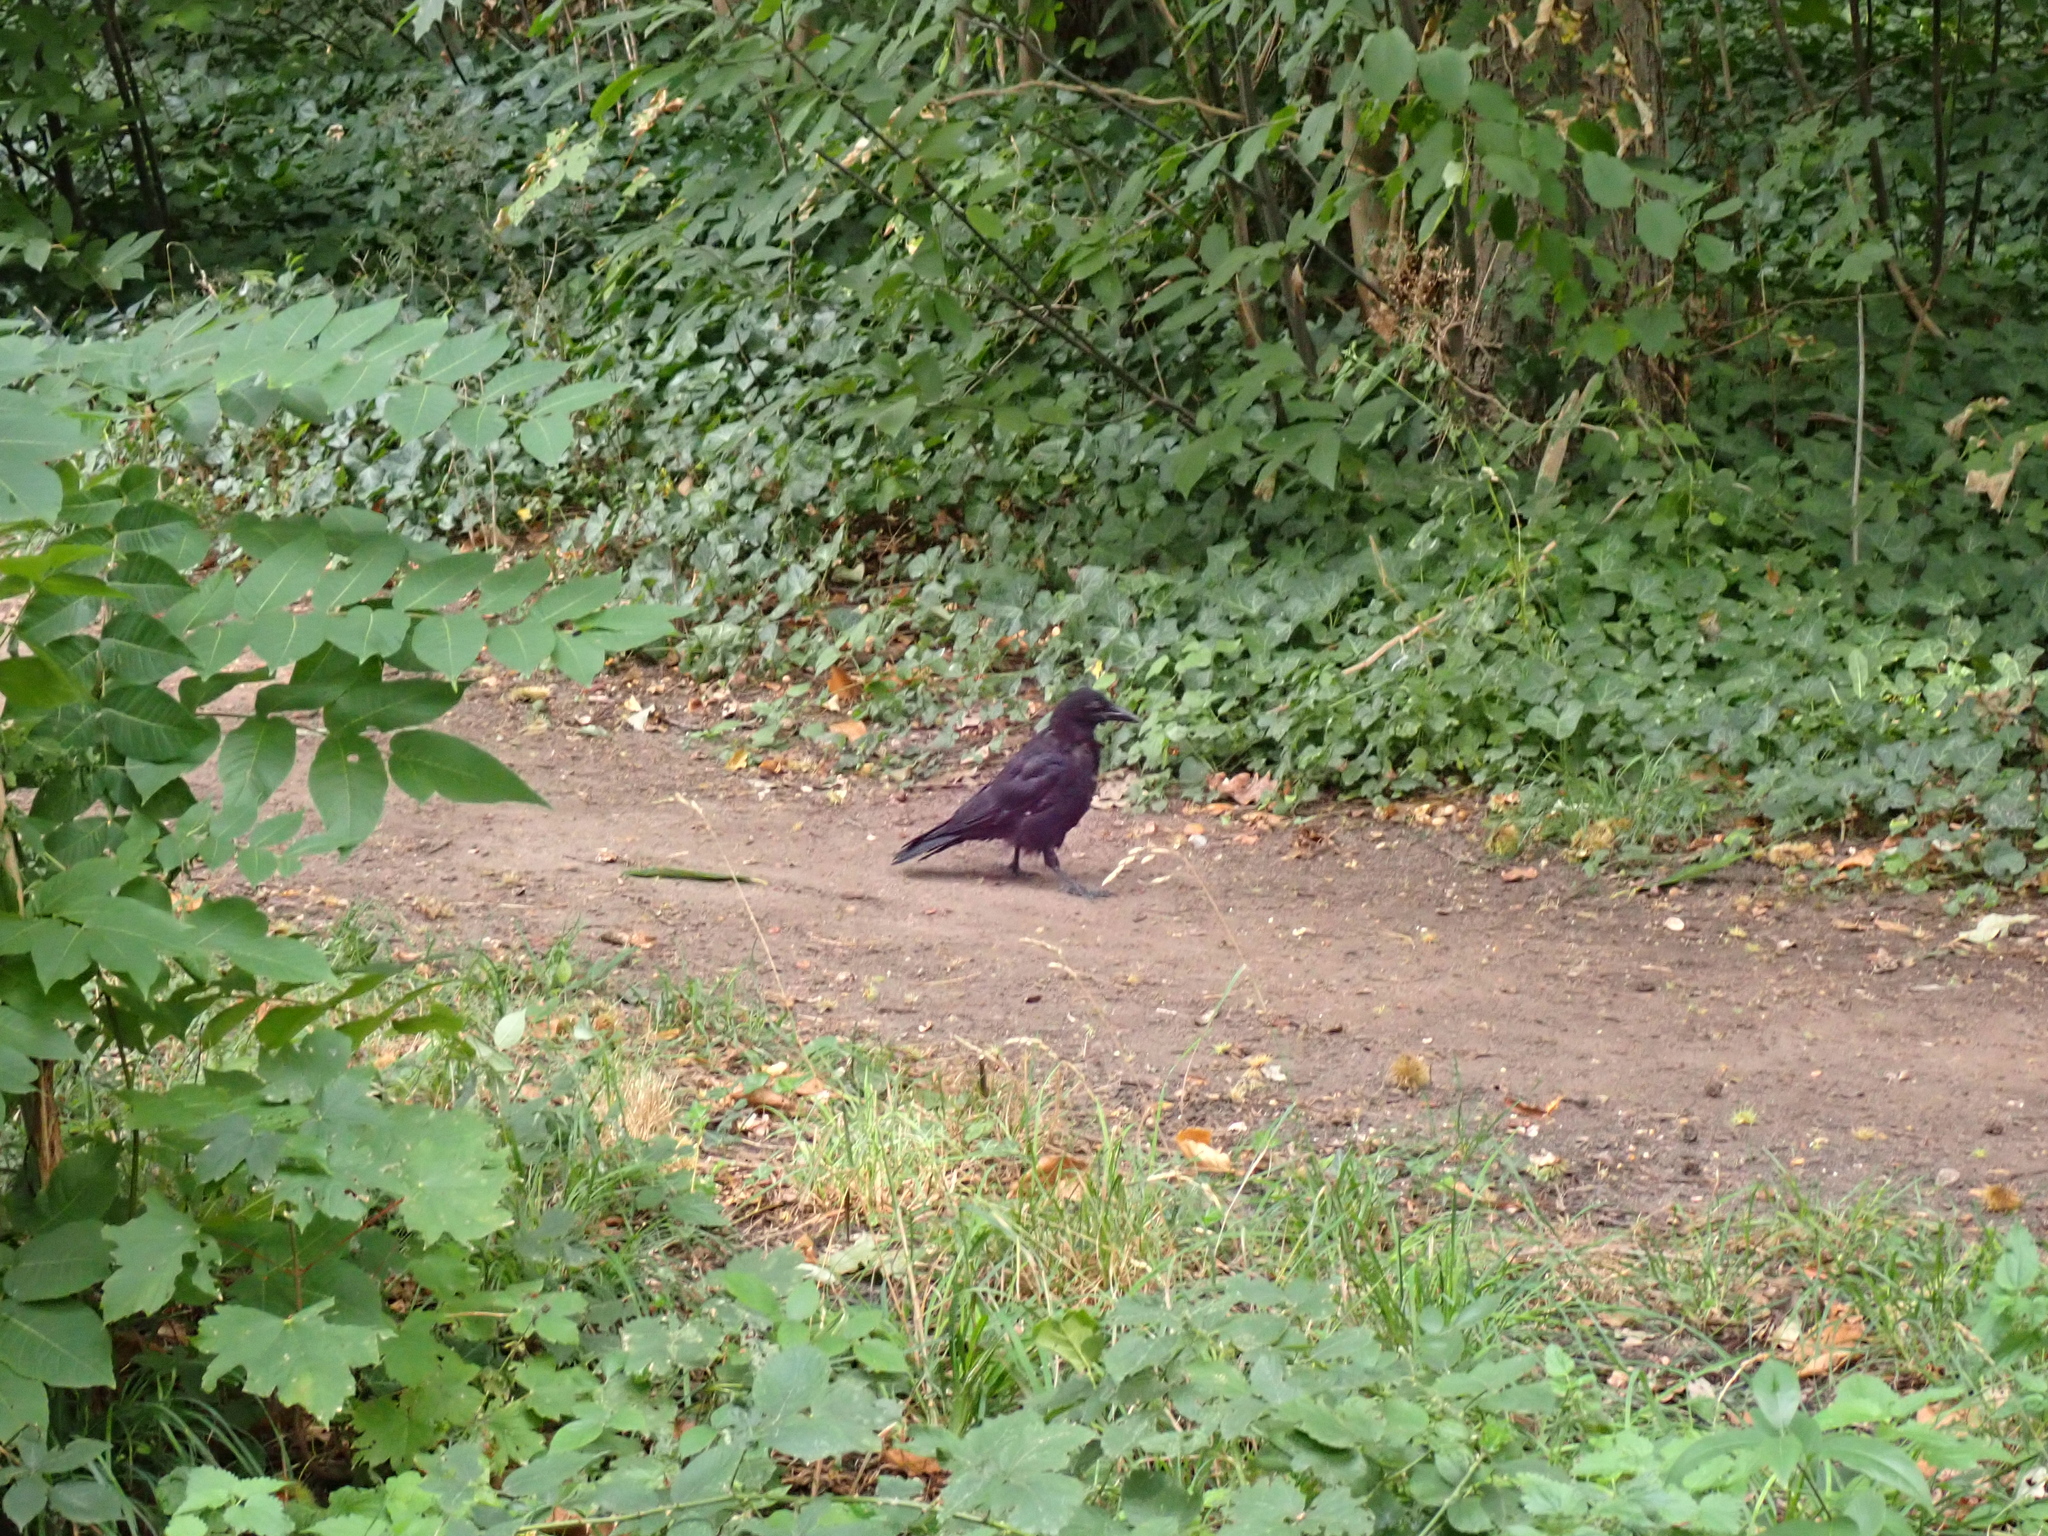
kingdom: Animalia
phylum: Chordata
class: Aves
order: Passeriformes
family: Corvidae
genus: Corvus
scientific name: Corvus corone
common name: Carrion crow
